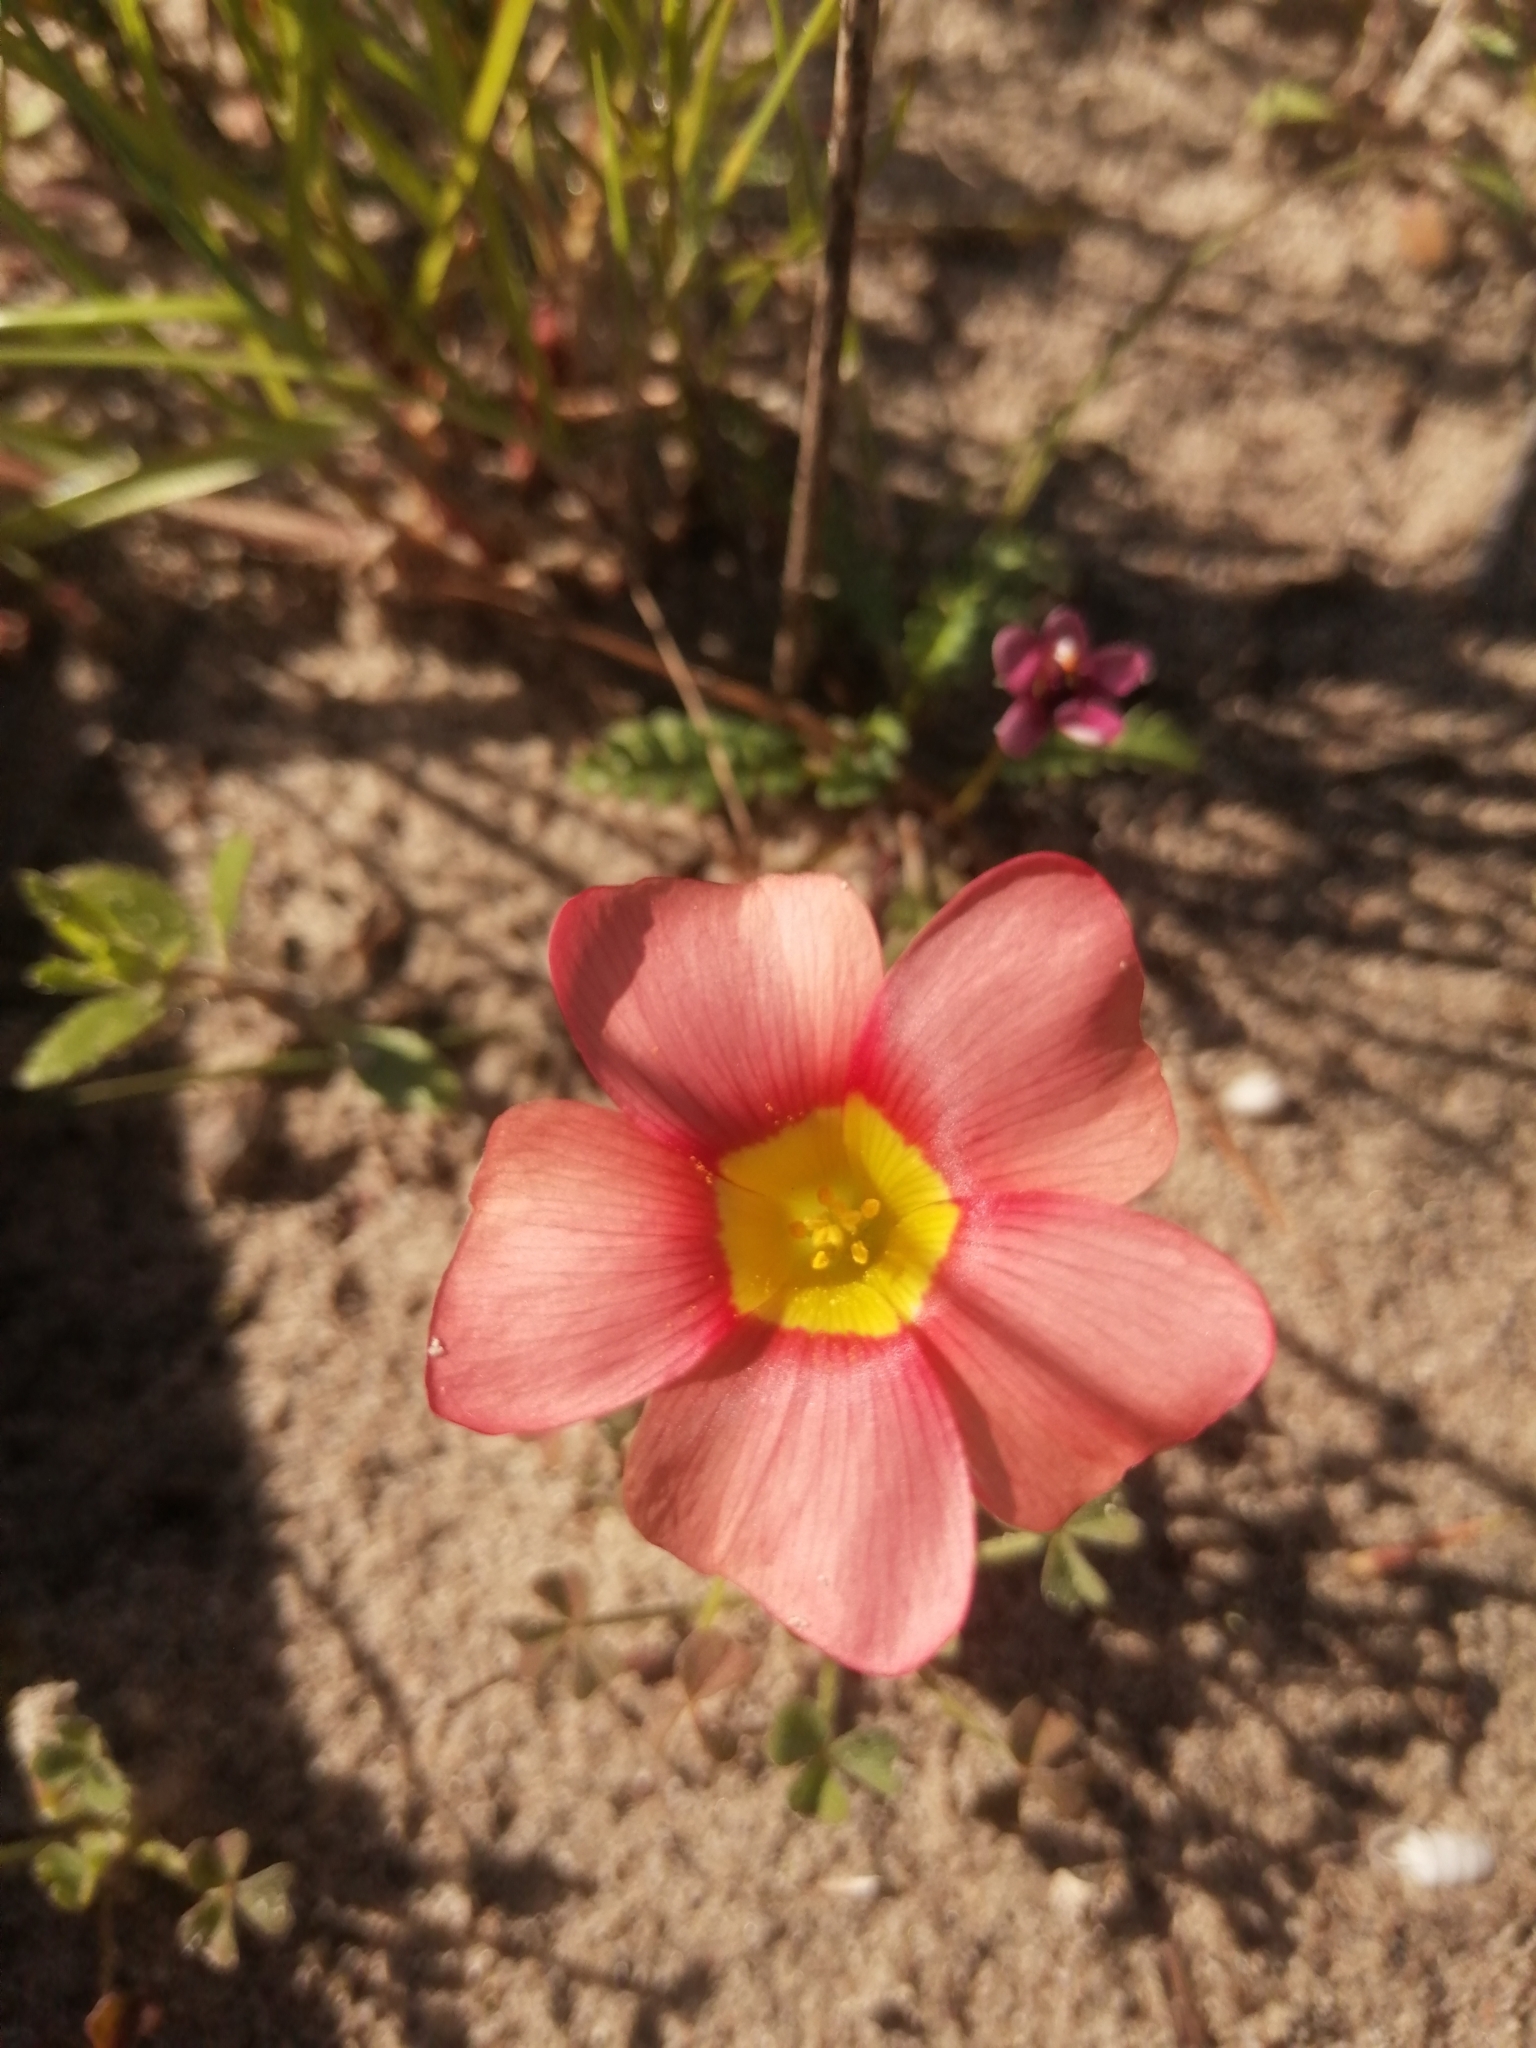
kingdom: Plantae
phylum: Tracheophyta
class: Magnoliopsida
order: Oxalidales
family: Oxalidaceae
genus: Oxalis
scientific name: Oxalis obtusa
